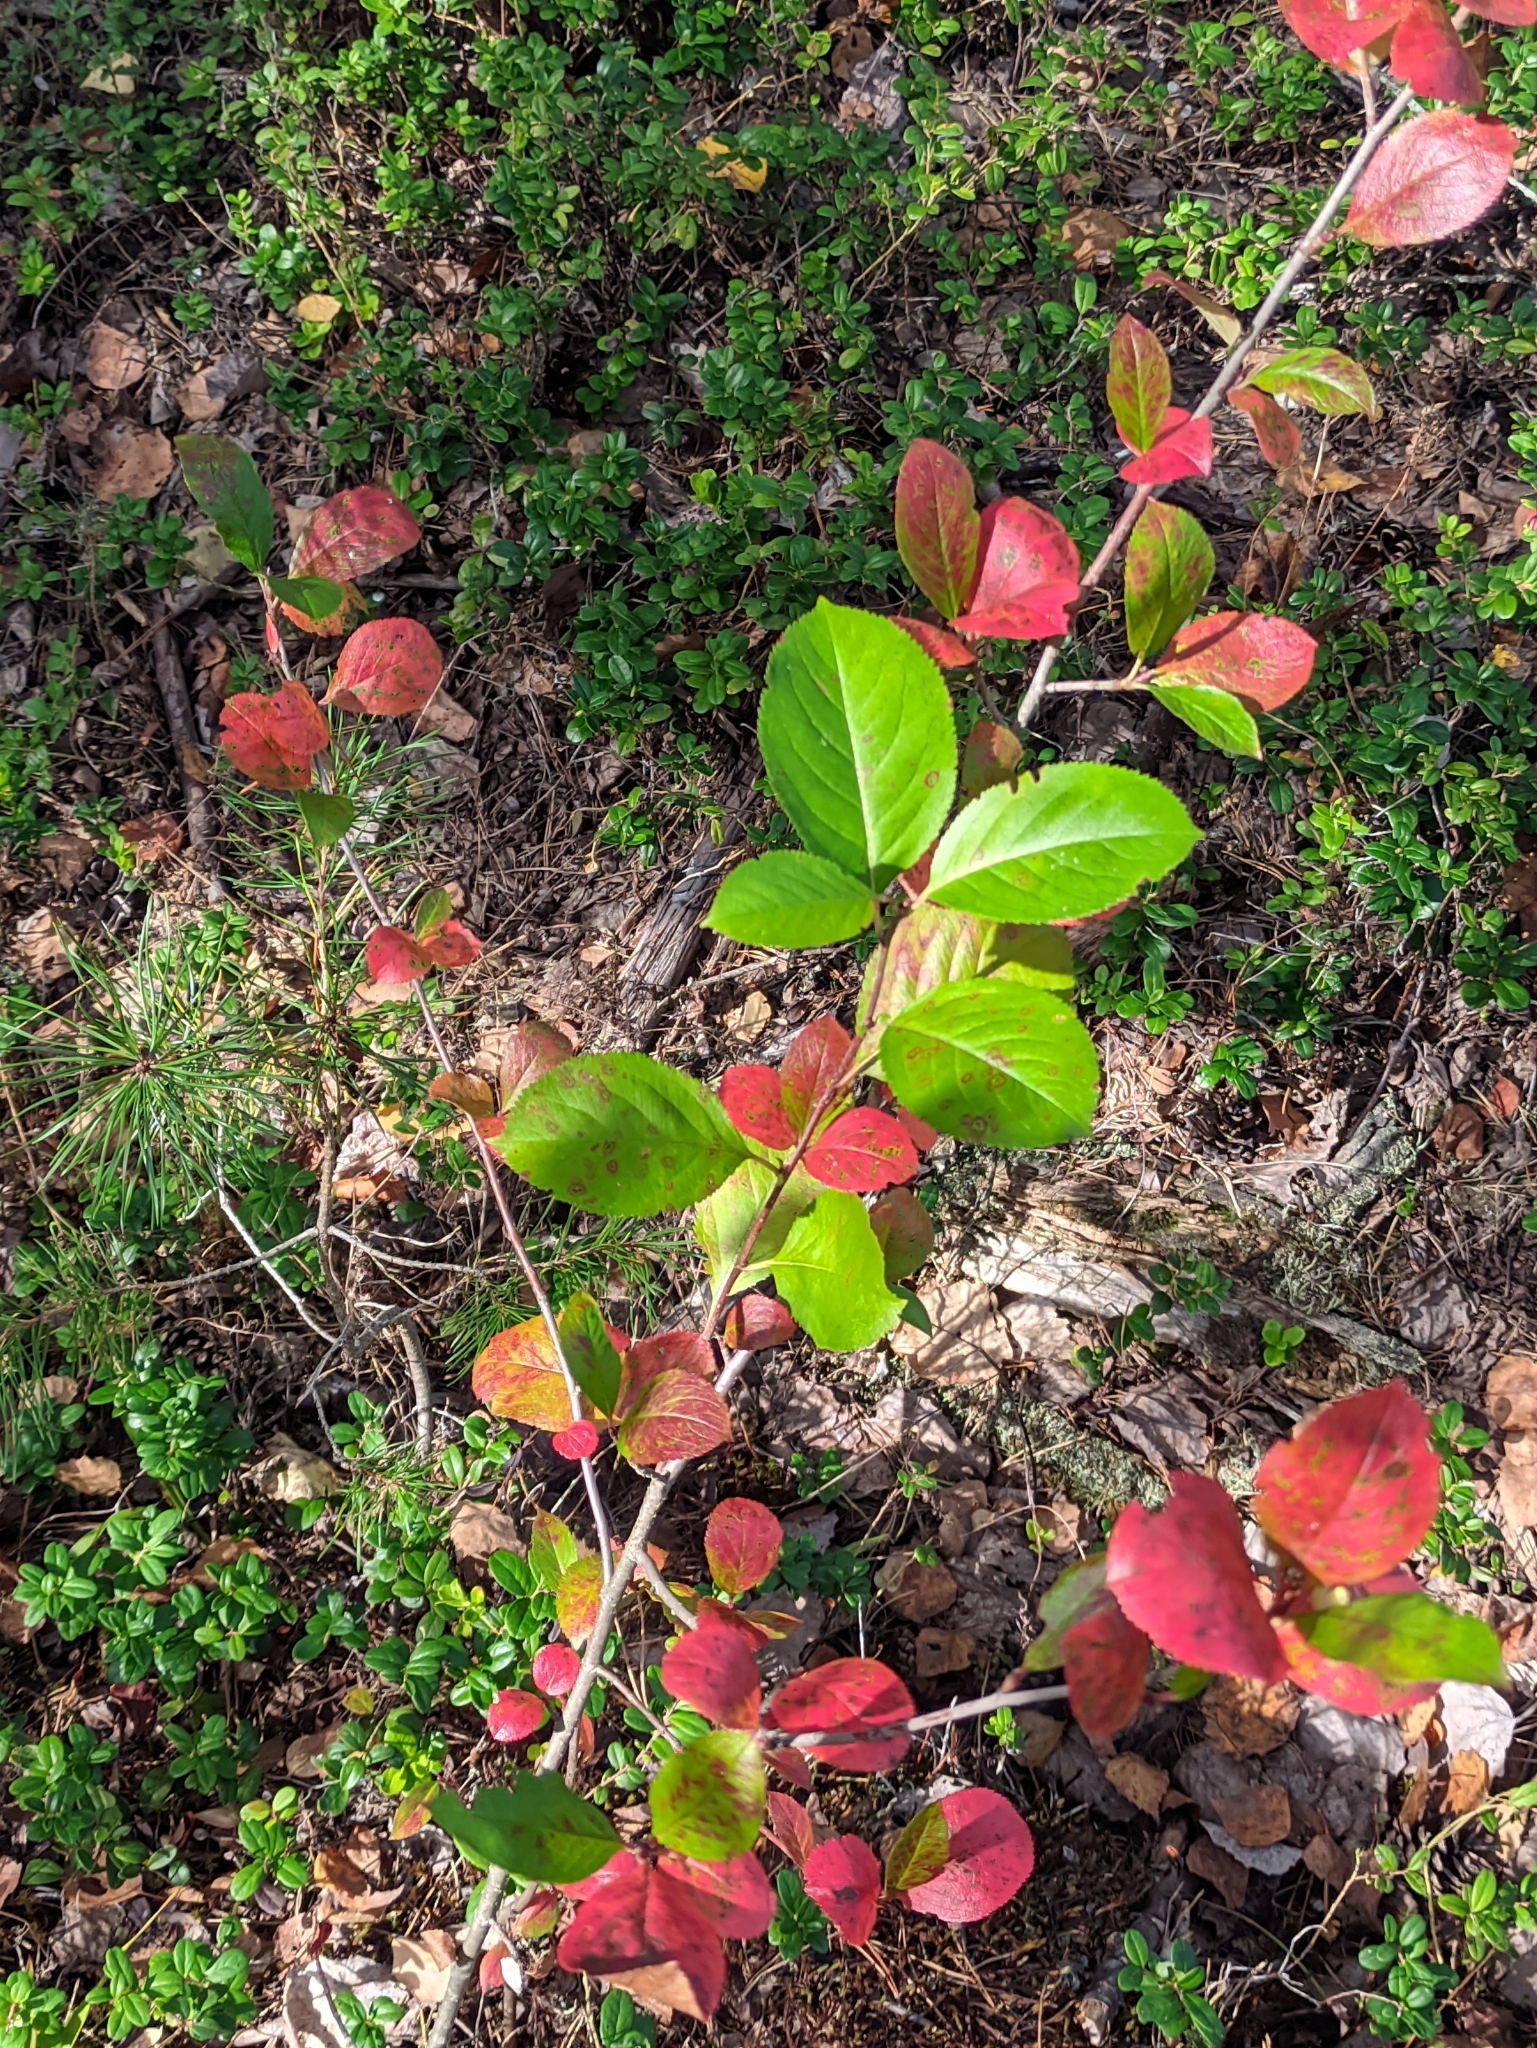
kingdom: Plantae
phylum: Tracheophyta
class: Magnoliopsida
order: Rosales
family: Rosaceae
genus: Sorbaronia
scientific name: Sorbaronia arsenii
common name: Arsène's mountain-ash
